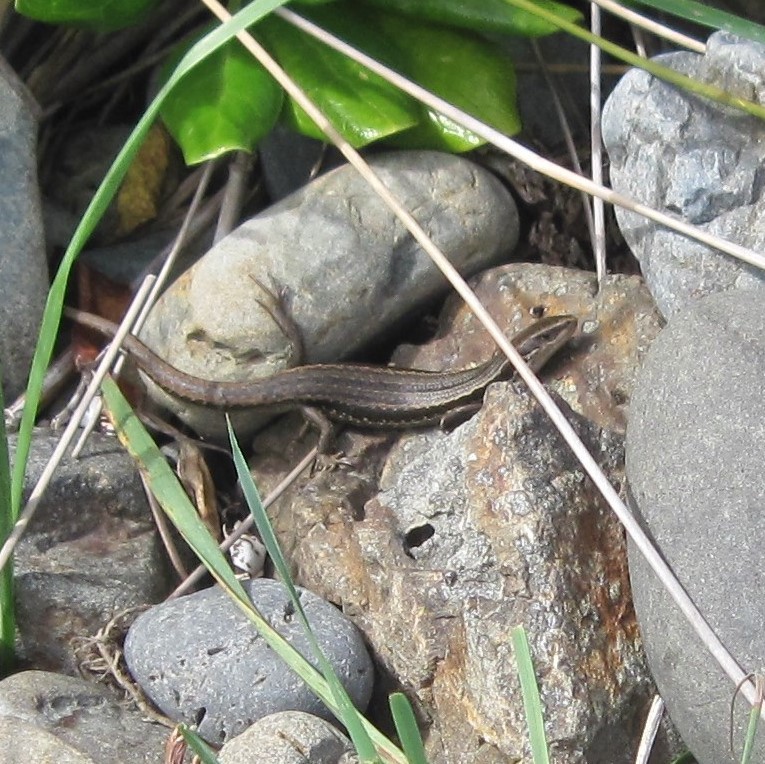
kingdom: Animalia
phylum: Chordata
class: Squamata
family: Scincidae
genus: Oligosoma
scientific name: Oligosoma polychroma
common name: Common new zealand skink
